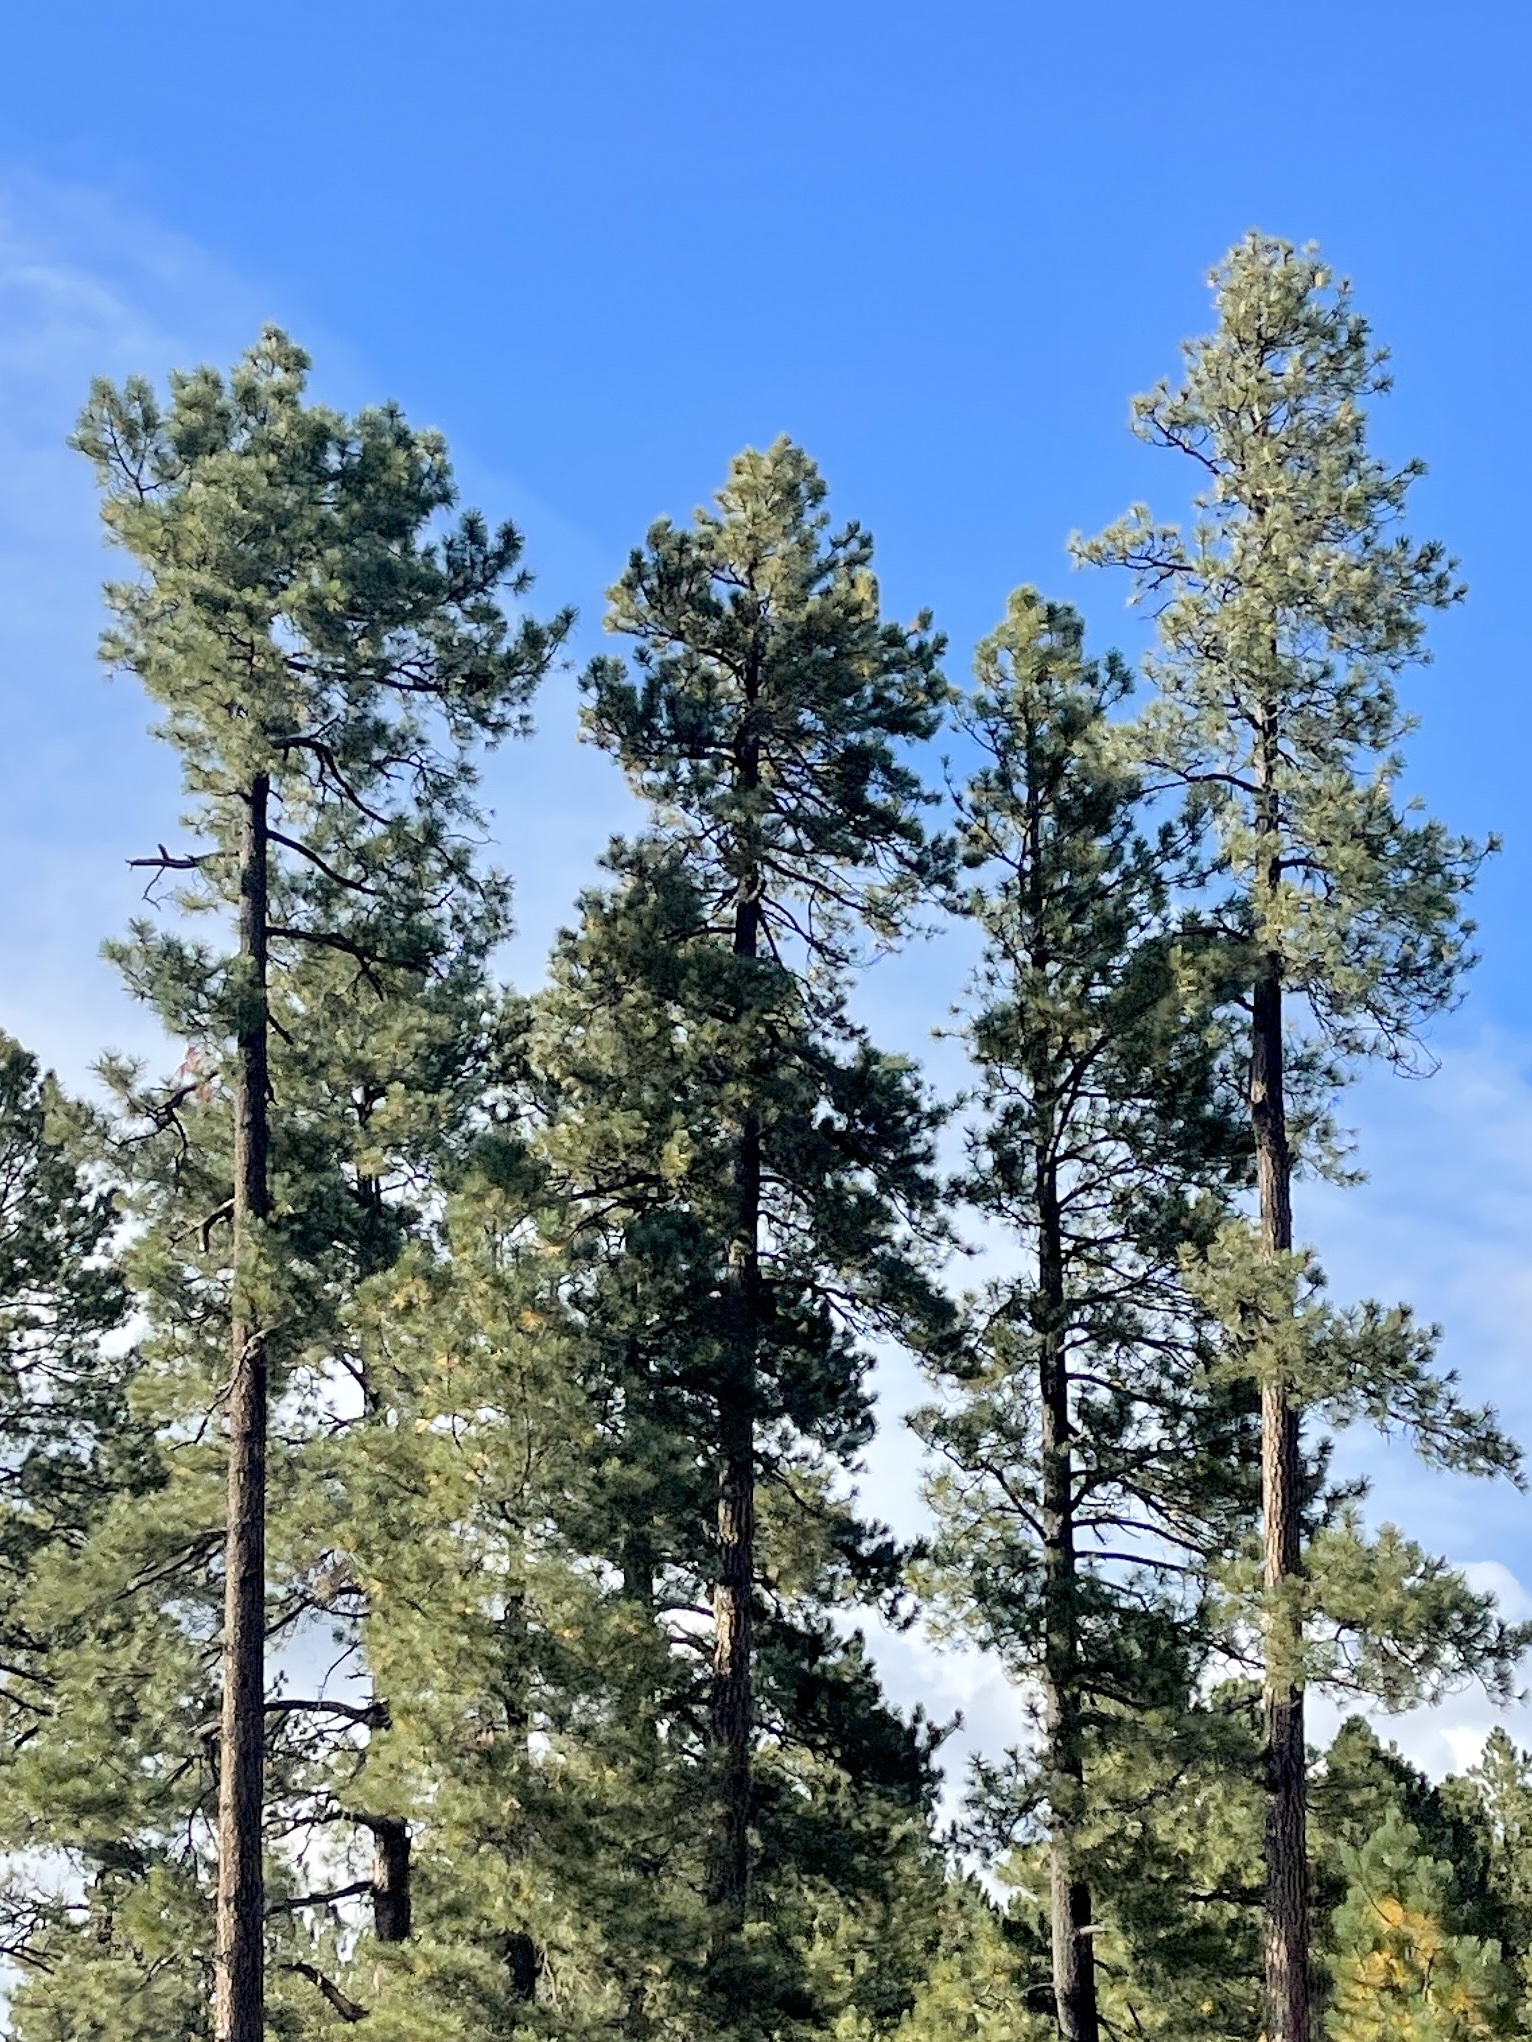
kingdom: Plantae
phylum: Tracheophyta
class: Pinopsida
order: Pinales
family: Pinaceae
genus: Pinus
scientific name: Pinus ponderosa
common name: Western yellow-pine
